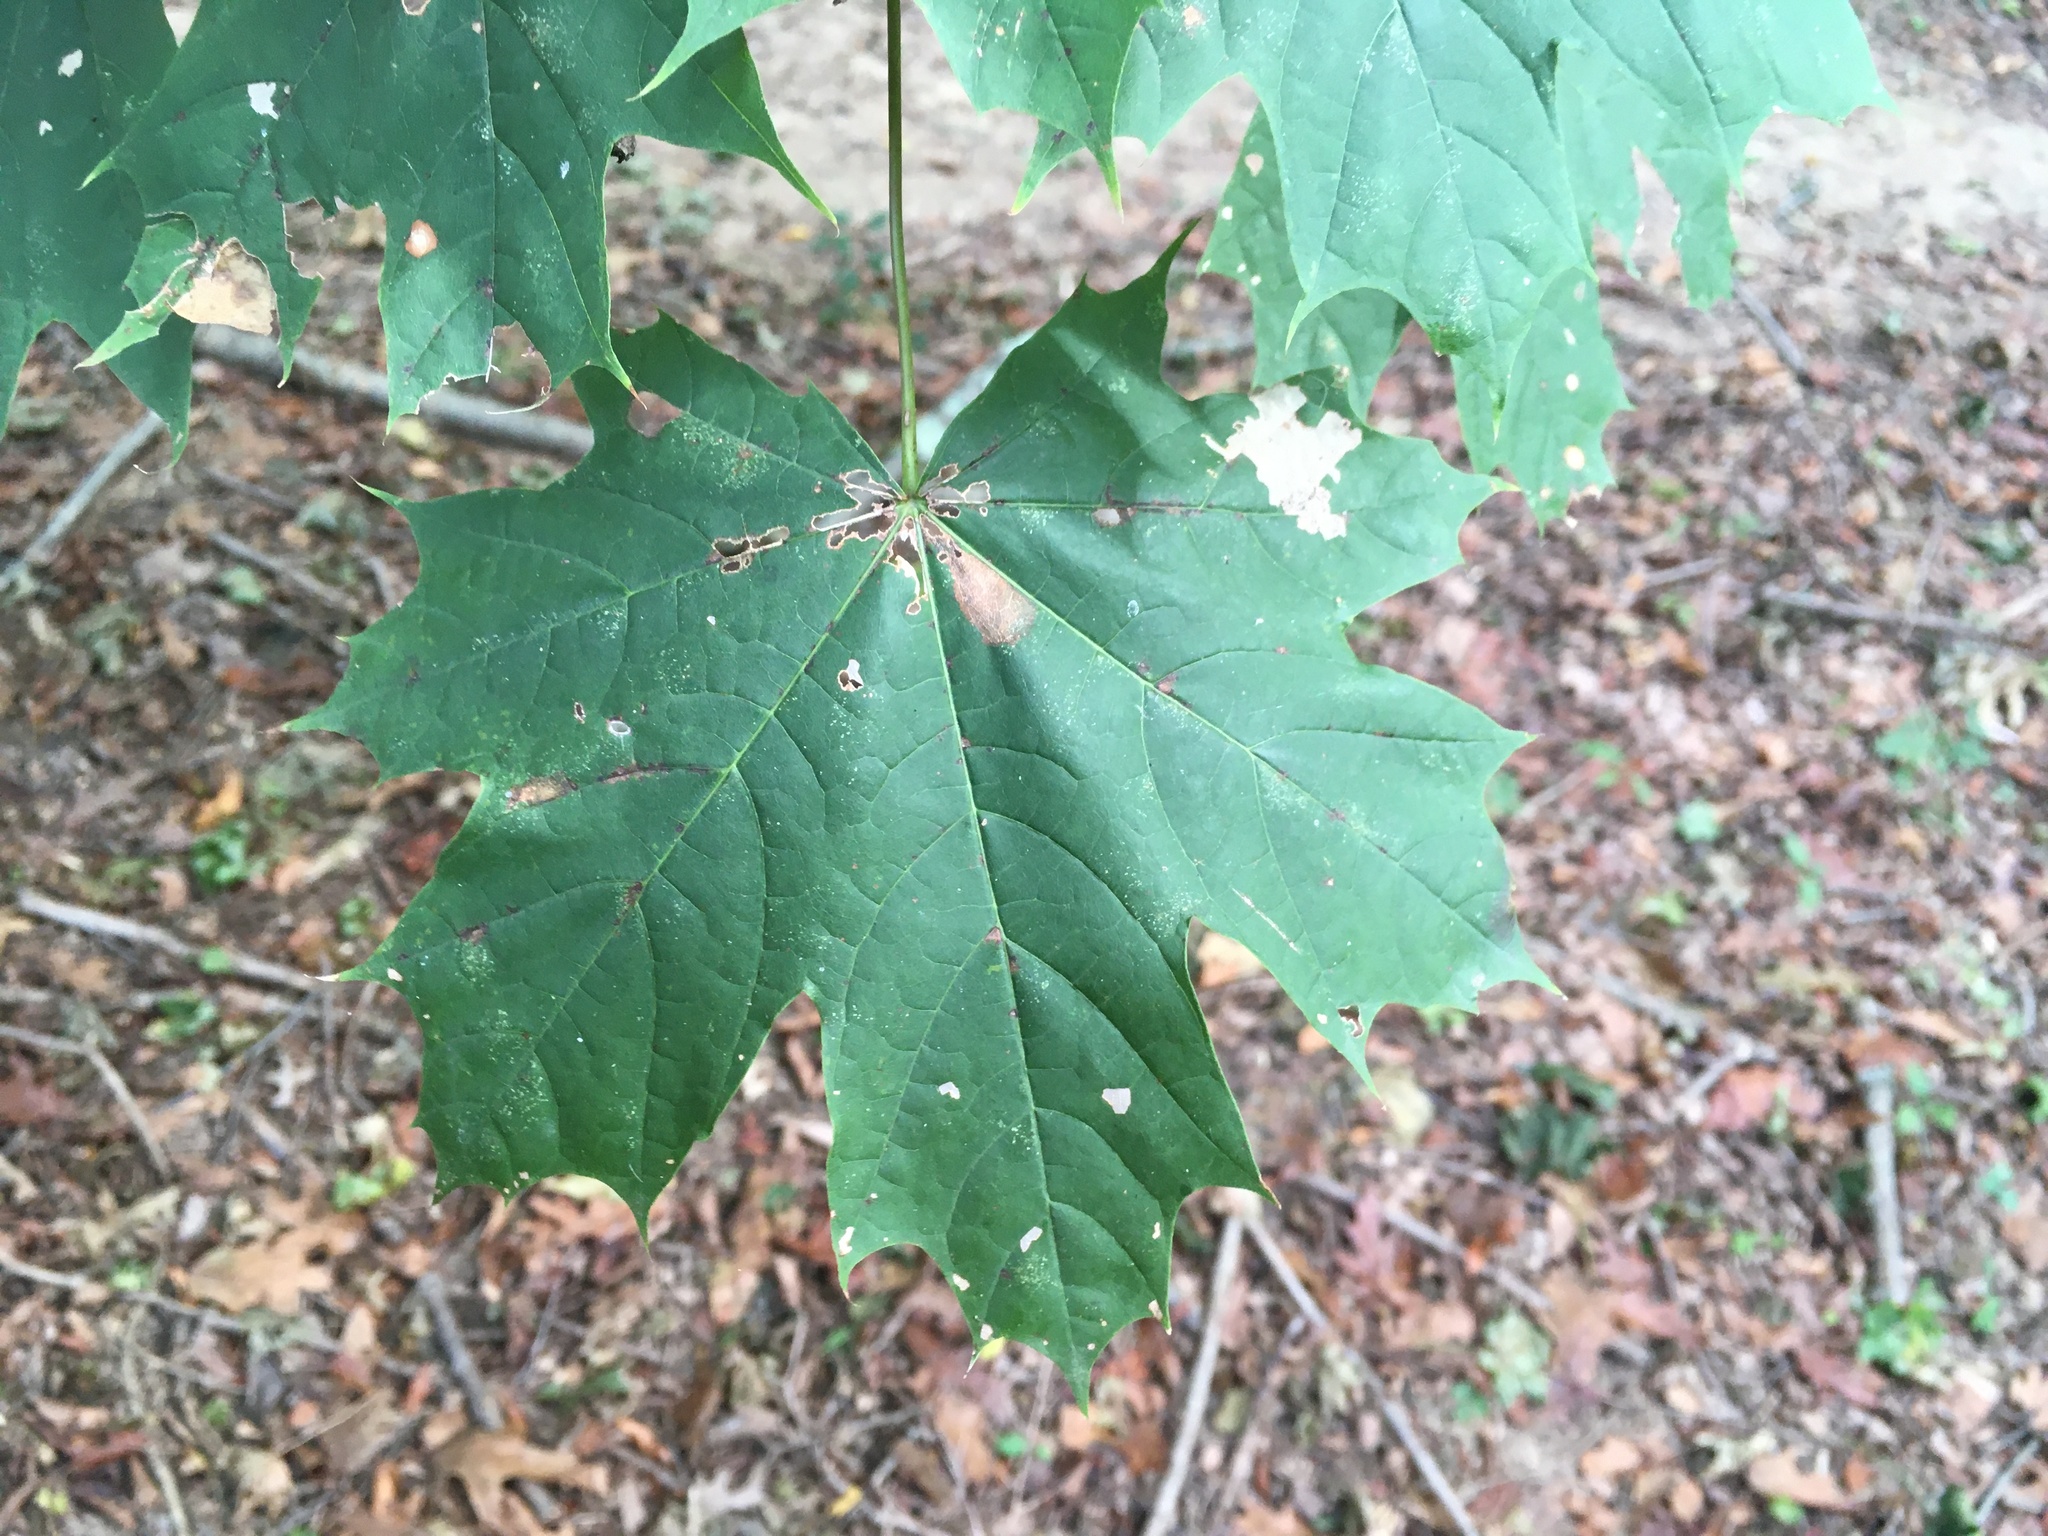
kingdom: Plantae
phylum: Tracheophyta
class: Magnoliopsida
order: Sapindales
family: Sapindaceae
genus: Acer
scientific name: Acer platanoides
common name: Norway maple
